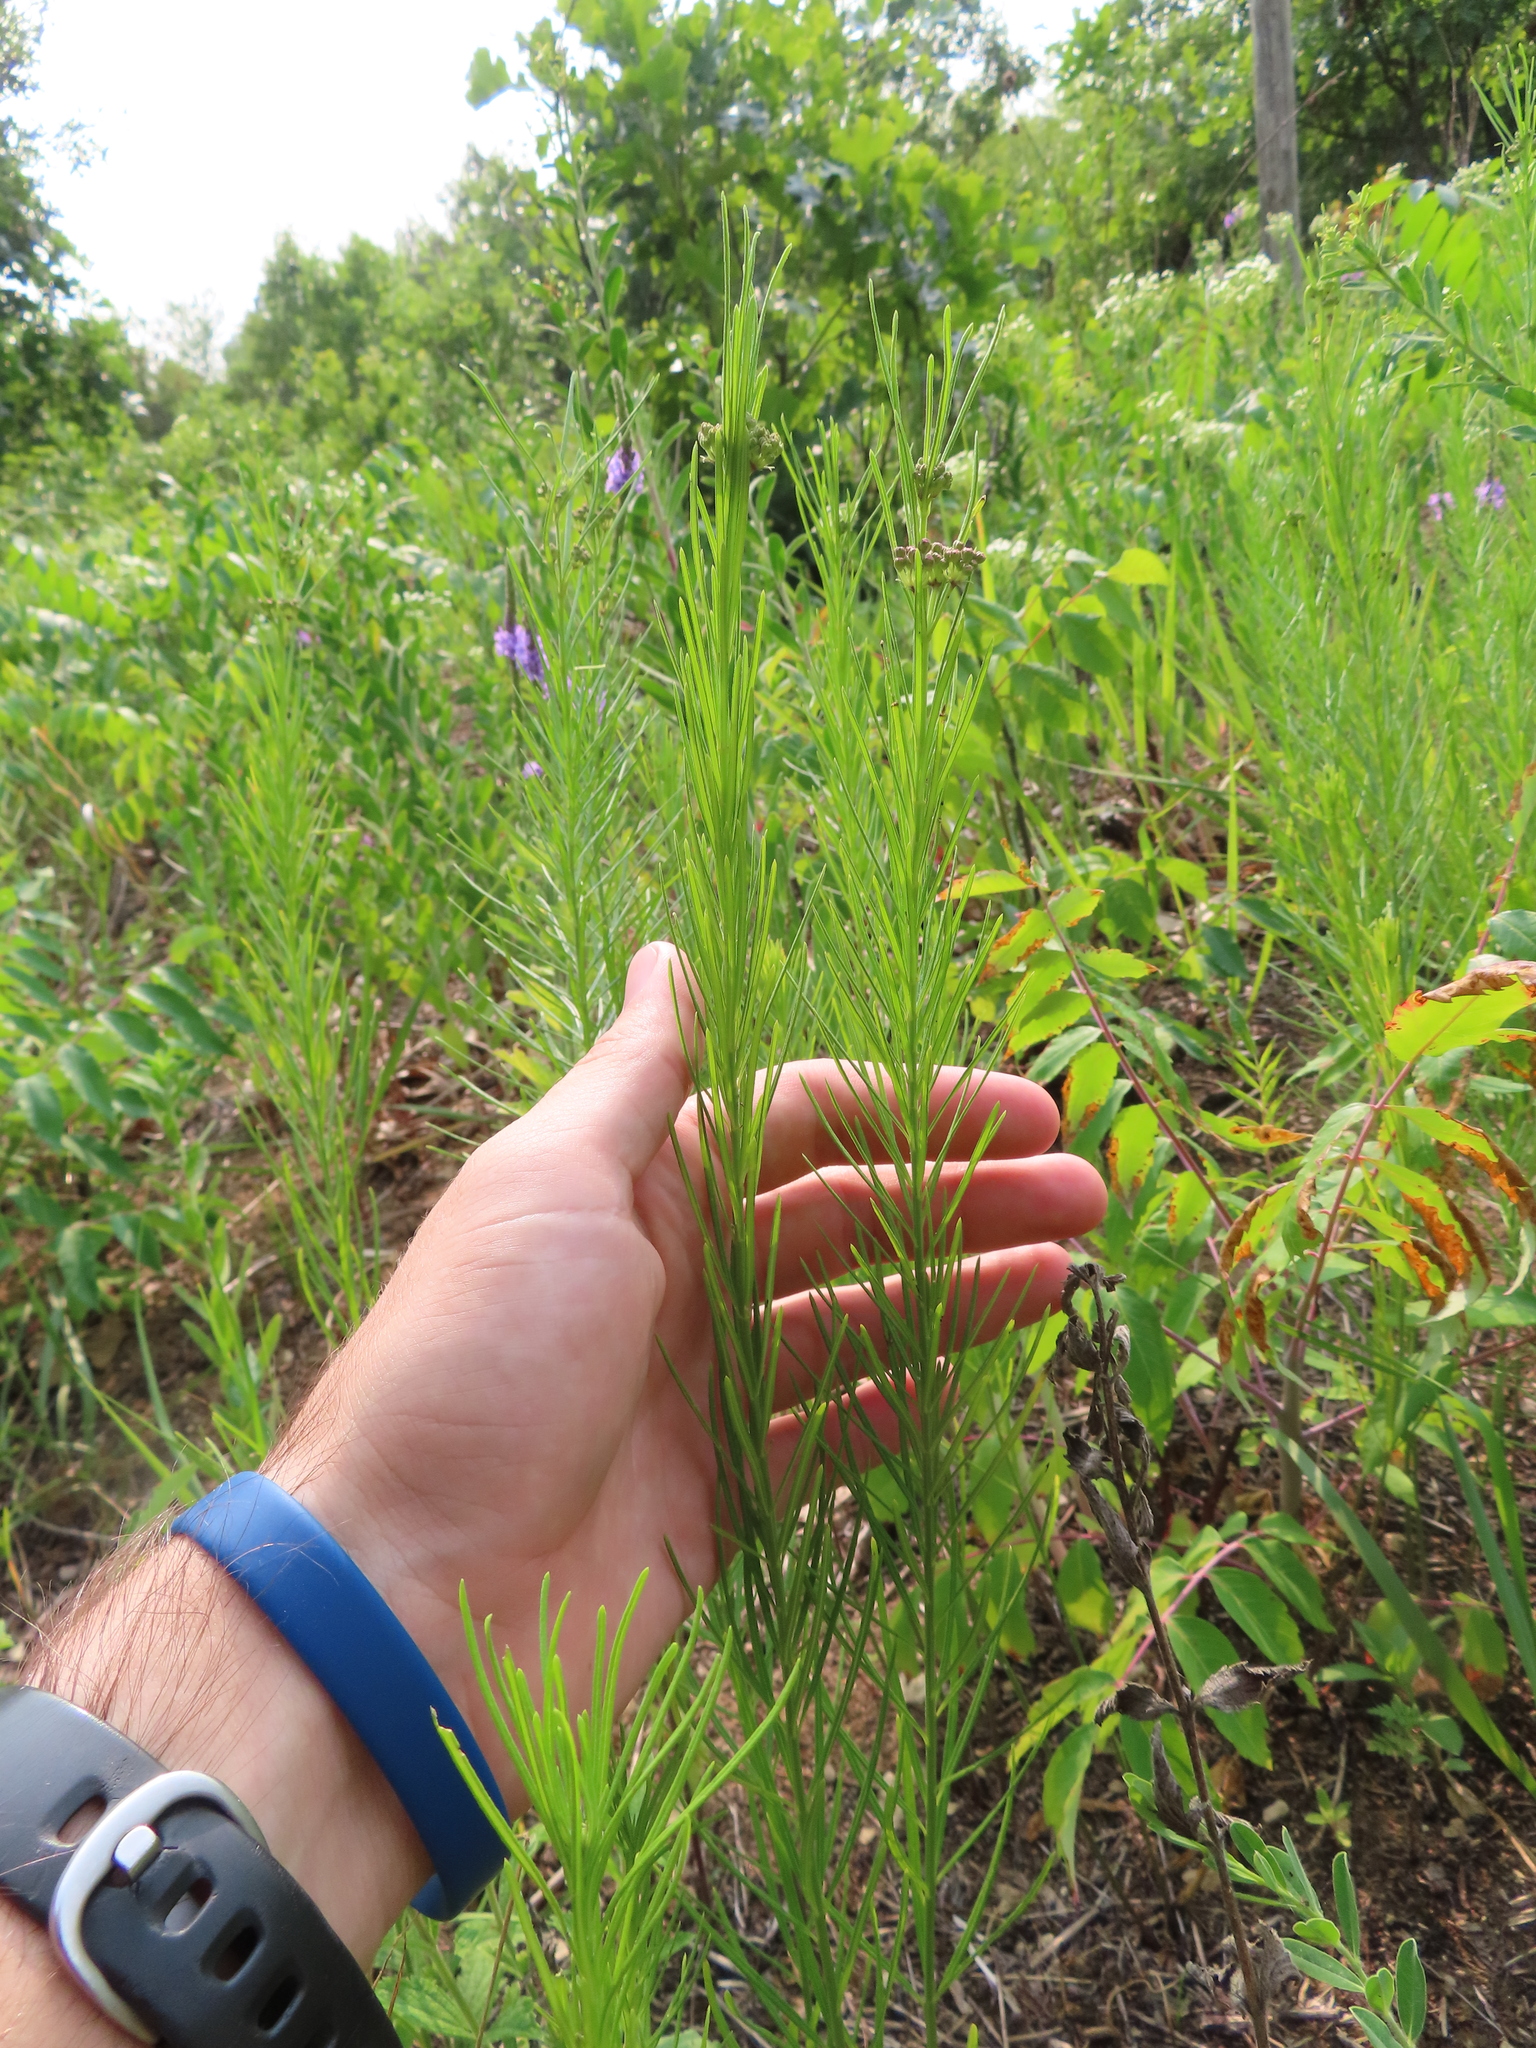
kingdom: Plantae
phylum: Tracheophyta
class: Magnoliopsida
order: Gentianales
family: Apocynaceae
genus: Asclepias
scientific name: Asclepias verticillata
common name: Eastern whorled milkweed
